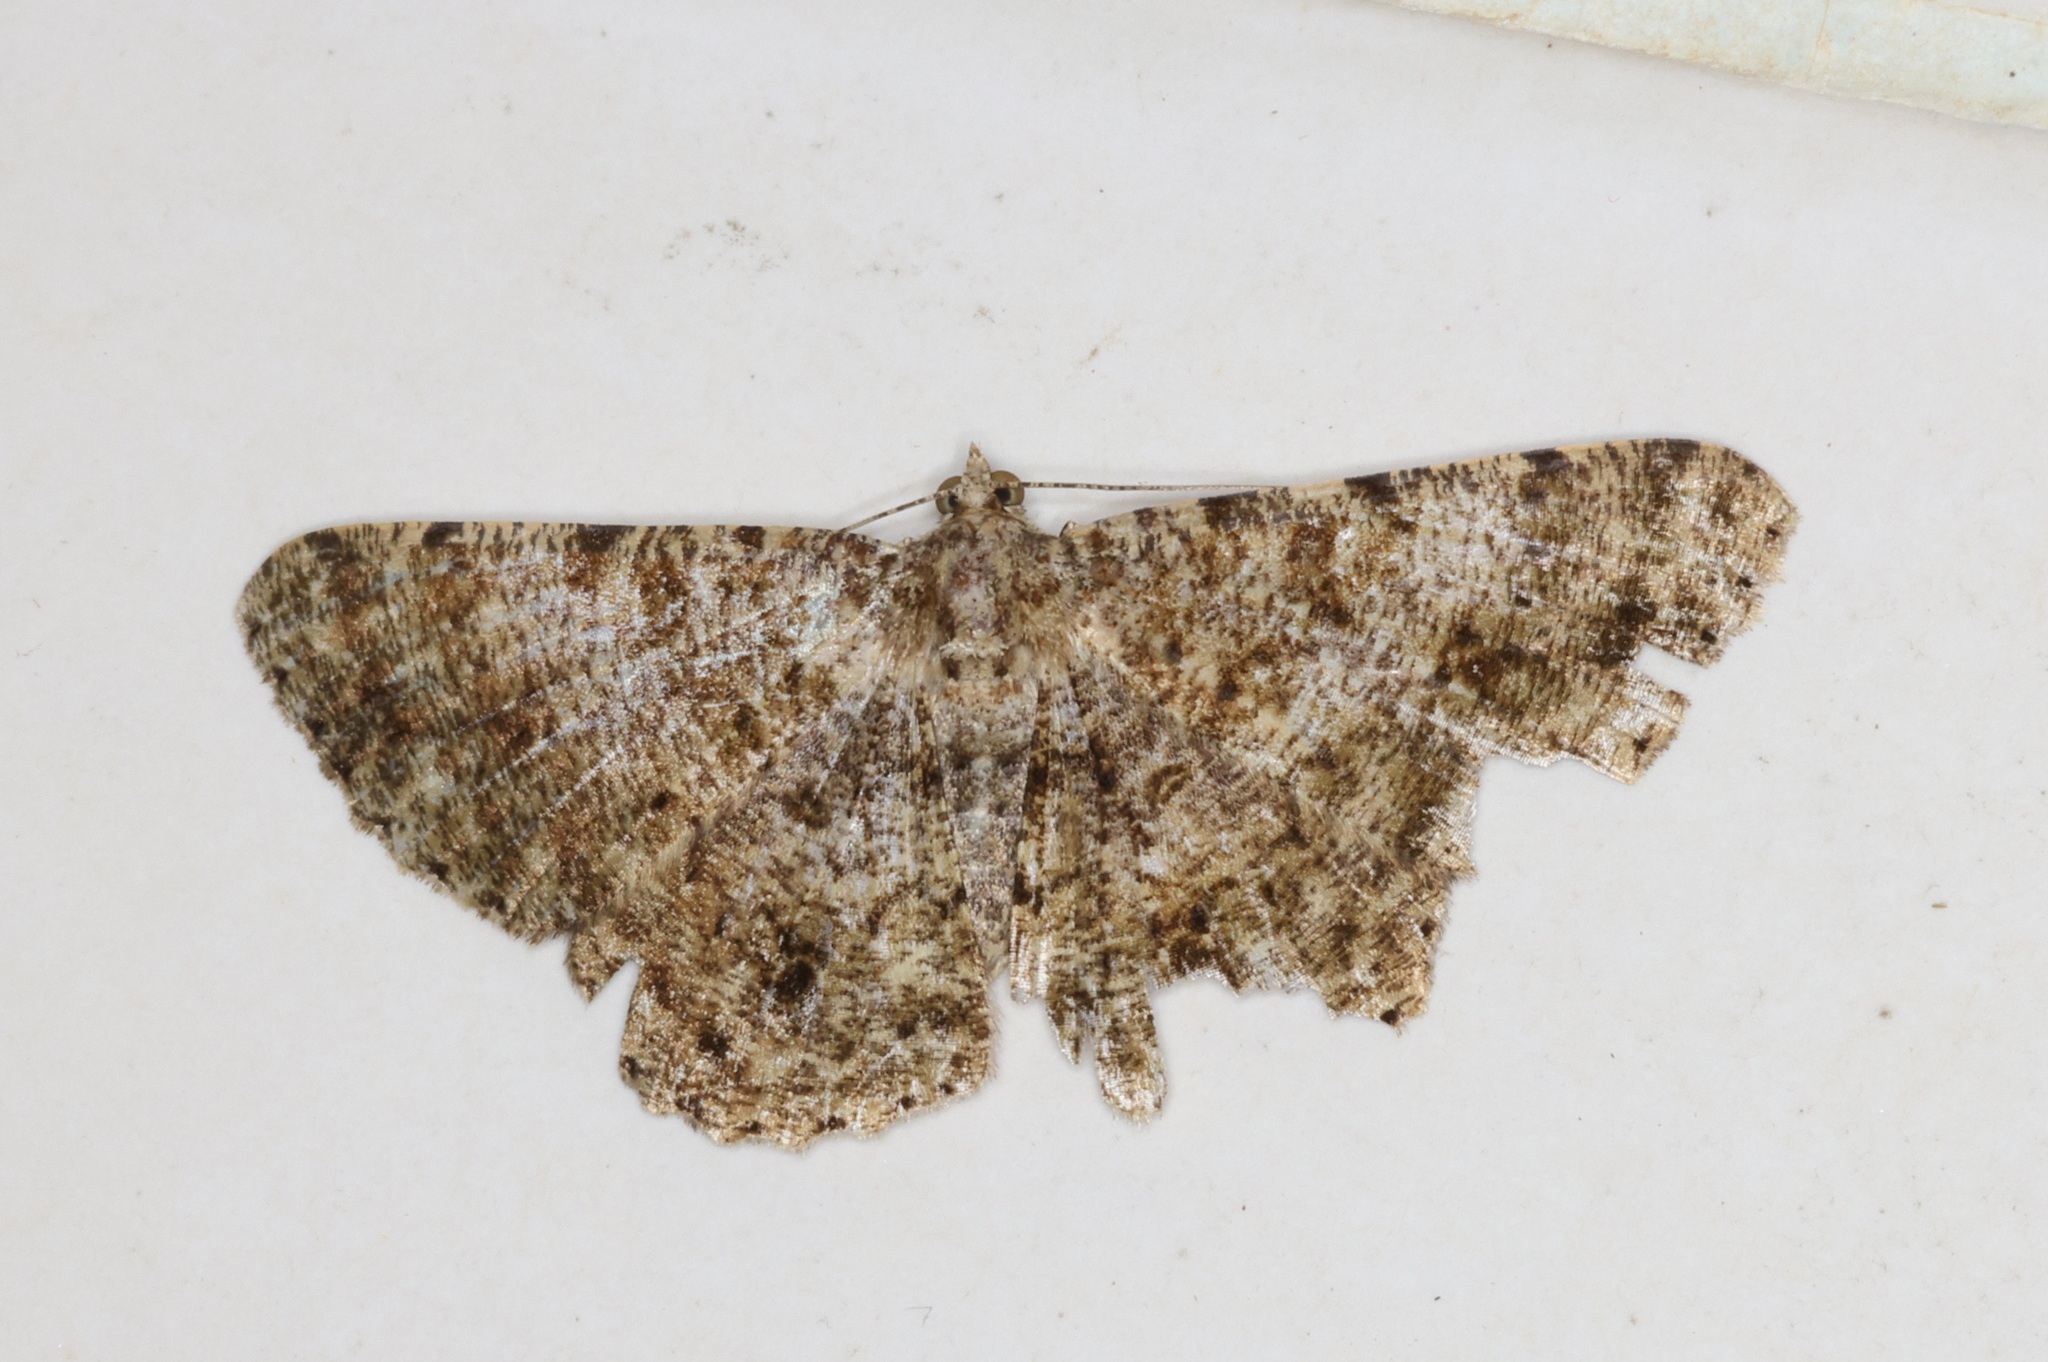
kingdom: Animalia
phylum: Arthropoda
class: Insecta
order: Lepidoptera
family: Geometridae
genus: Racotis
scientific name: Racotis boarmiaria
